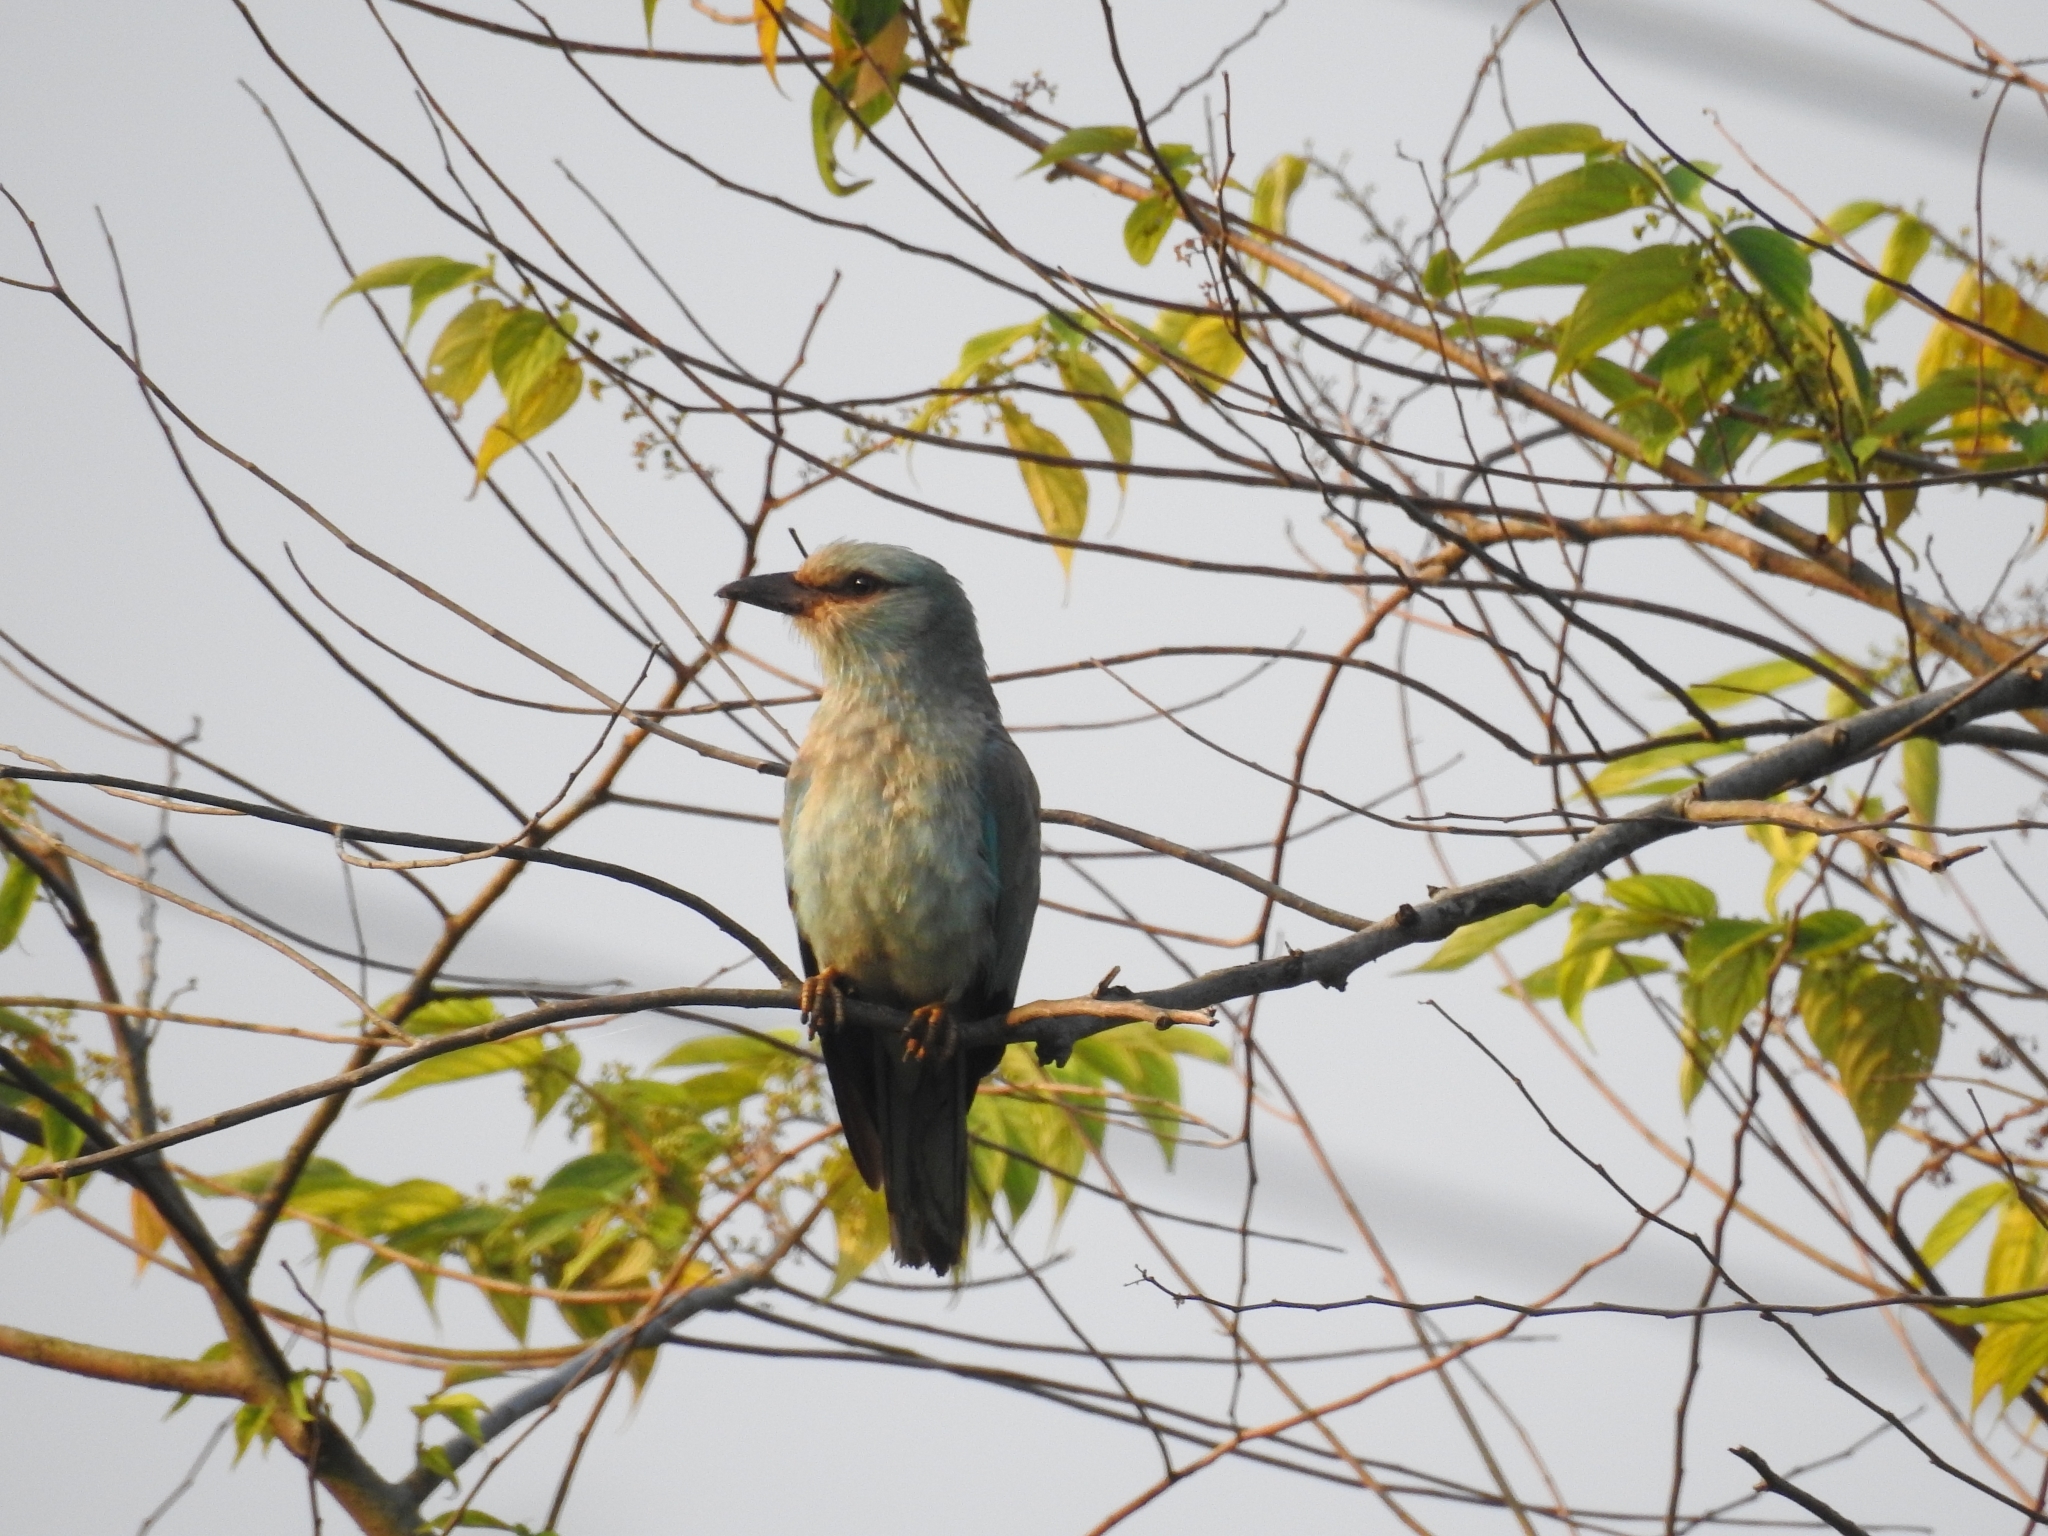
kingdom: Animalia
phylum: Chordata
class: Aves
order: Coraciiformes
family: Coraciidae
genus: Coracias
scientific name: Coracias garrulus
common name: European roller
